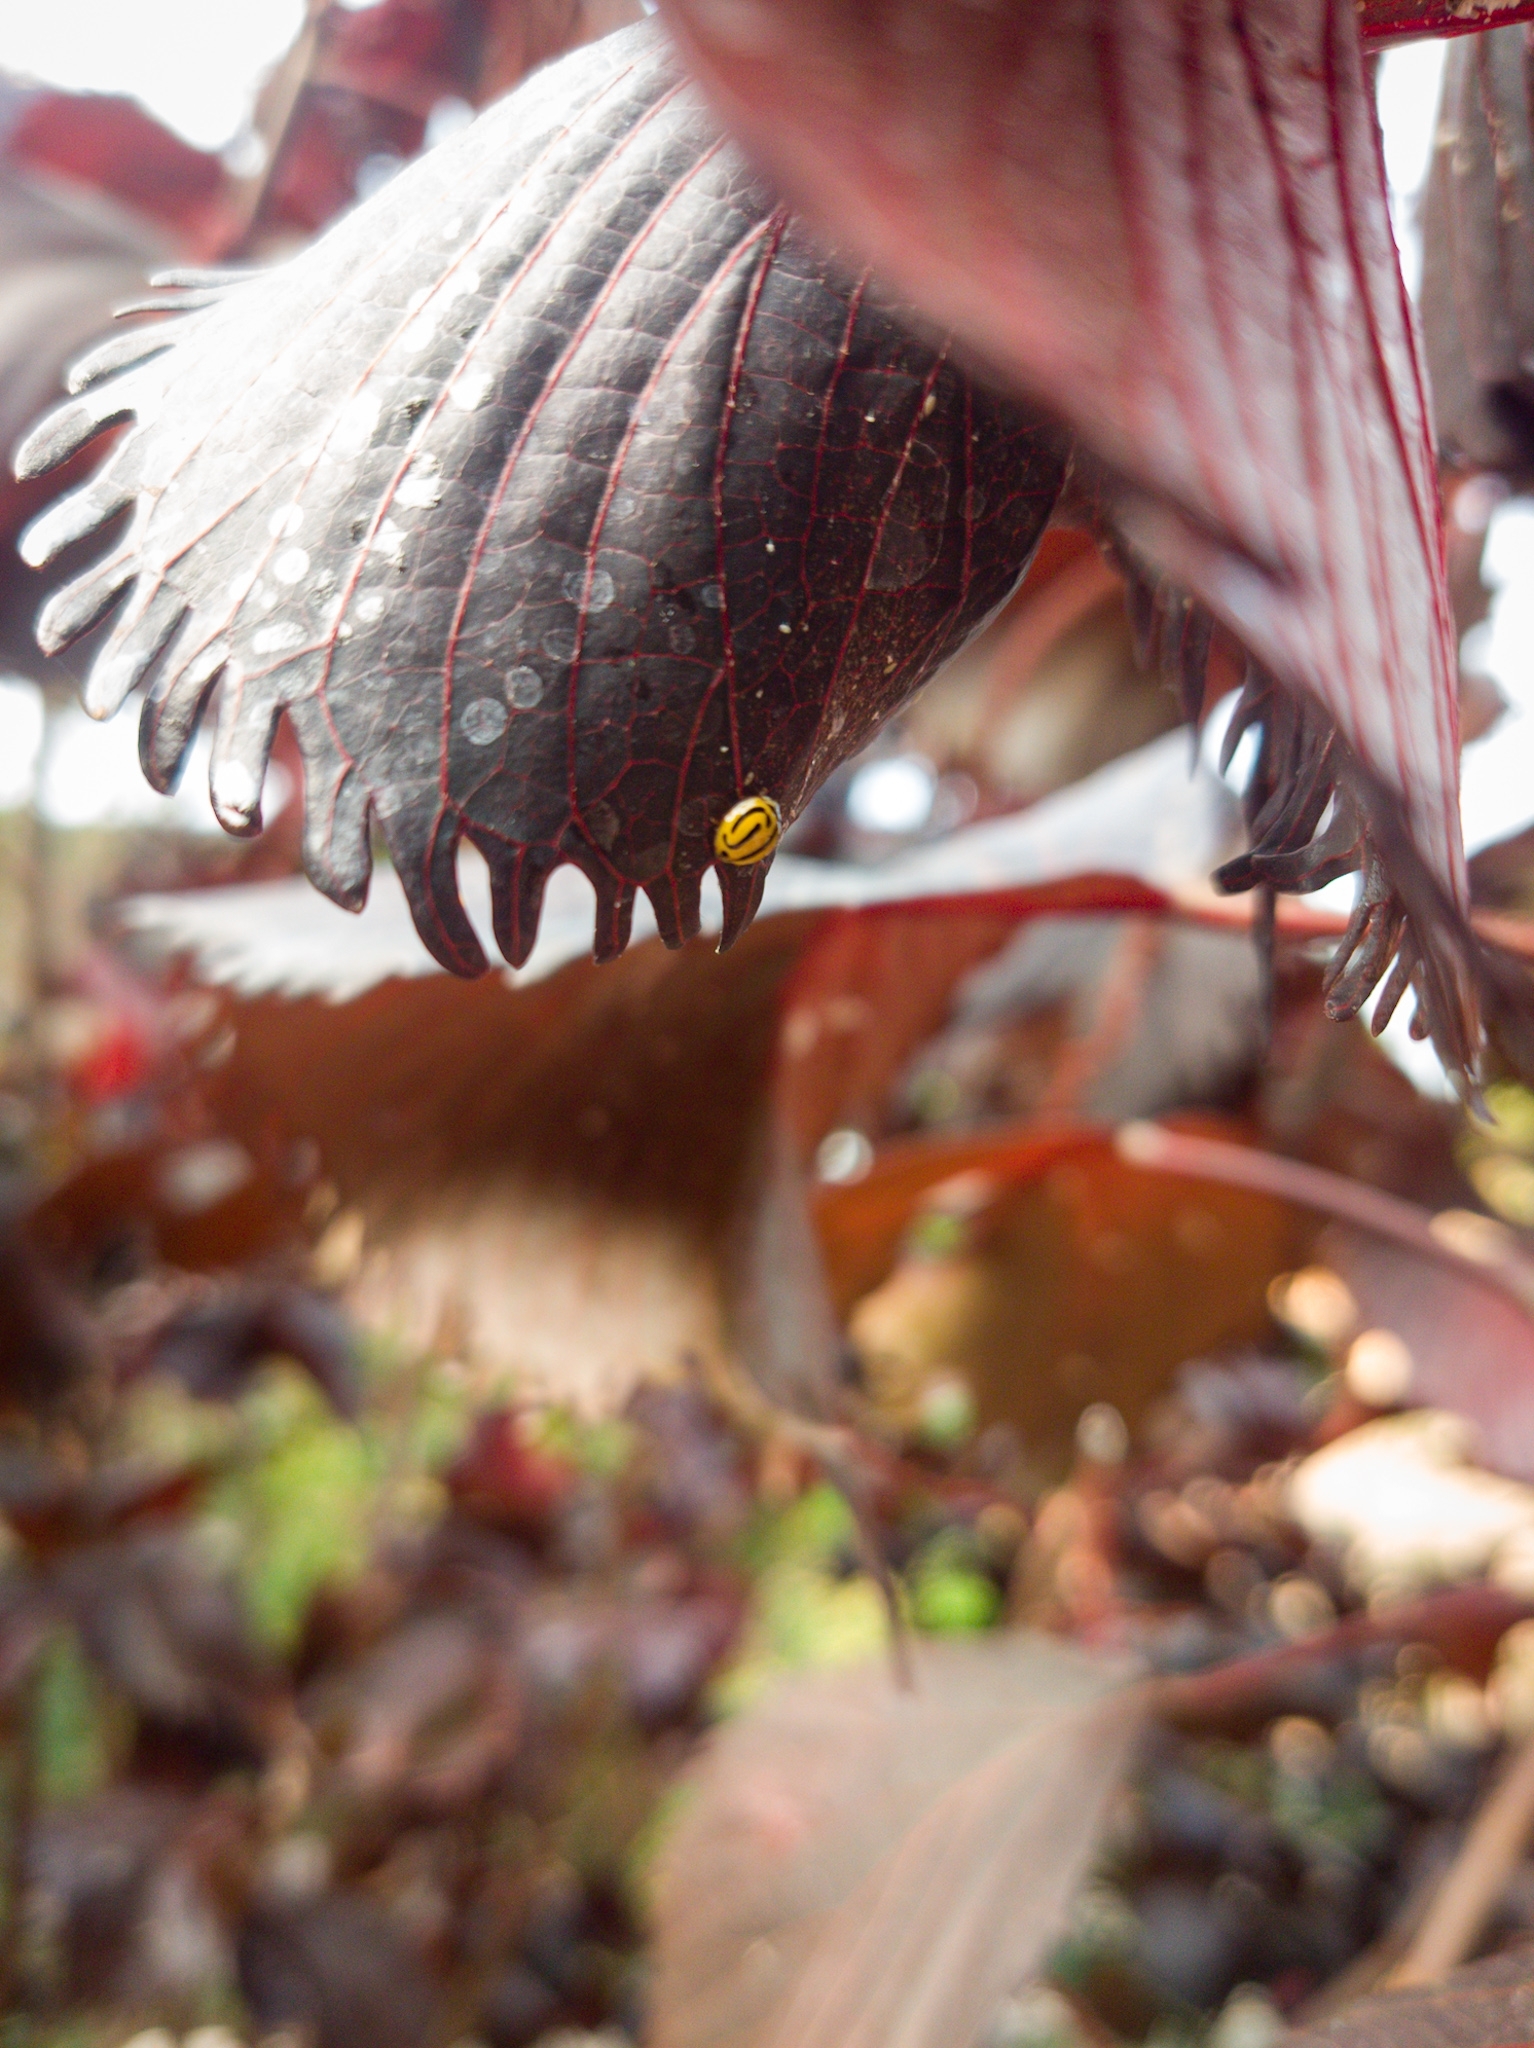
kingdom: Animalia
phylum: Arthropoda
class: Insecta
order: Coleoptera
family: Coccinellidae
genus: Anegleis
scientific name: Anegleis cardoni
